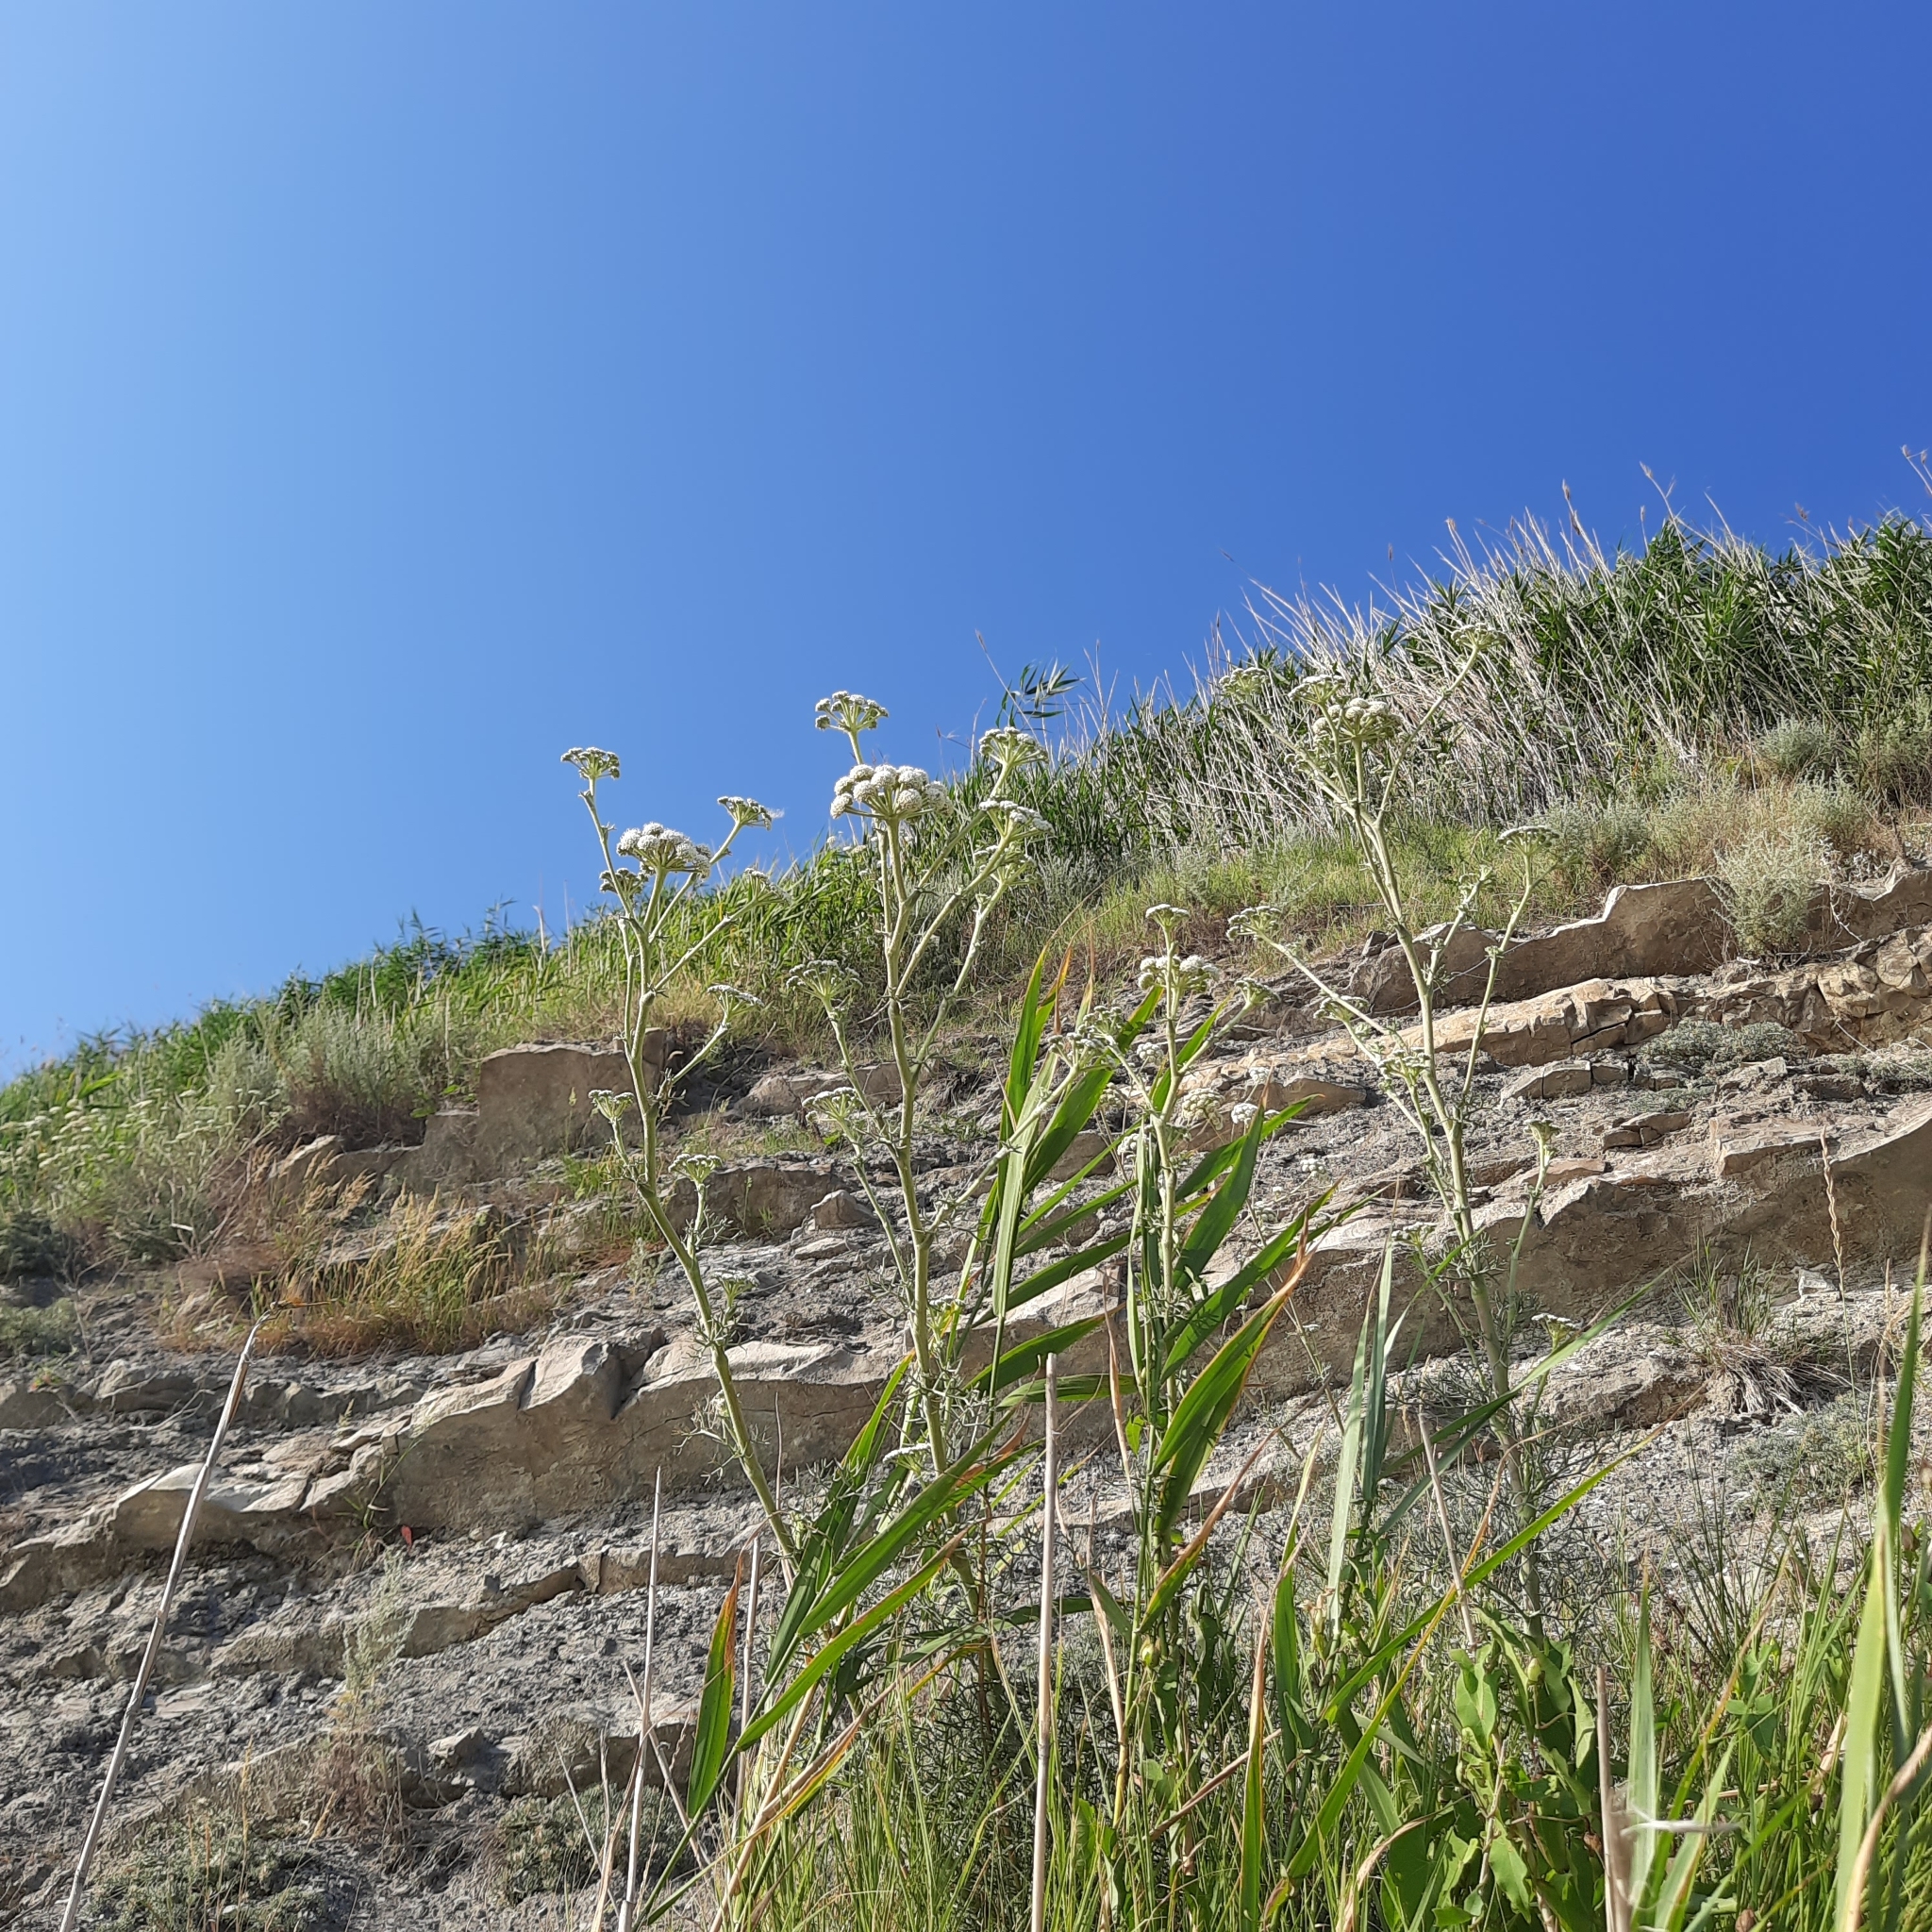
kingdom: Plantae
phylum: Tracheophyta
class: Magnoliopsida
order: Apiales
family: Apiaceae
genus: Seseli
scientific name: Seseli ponticum
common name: Pontic seseli
